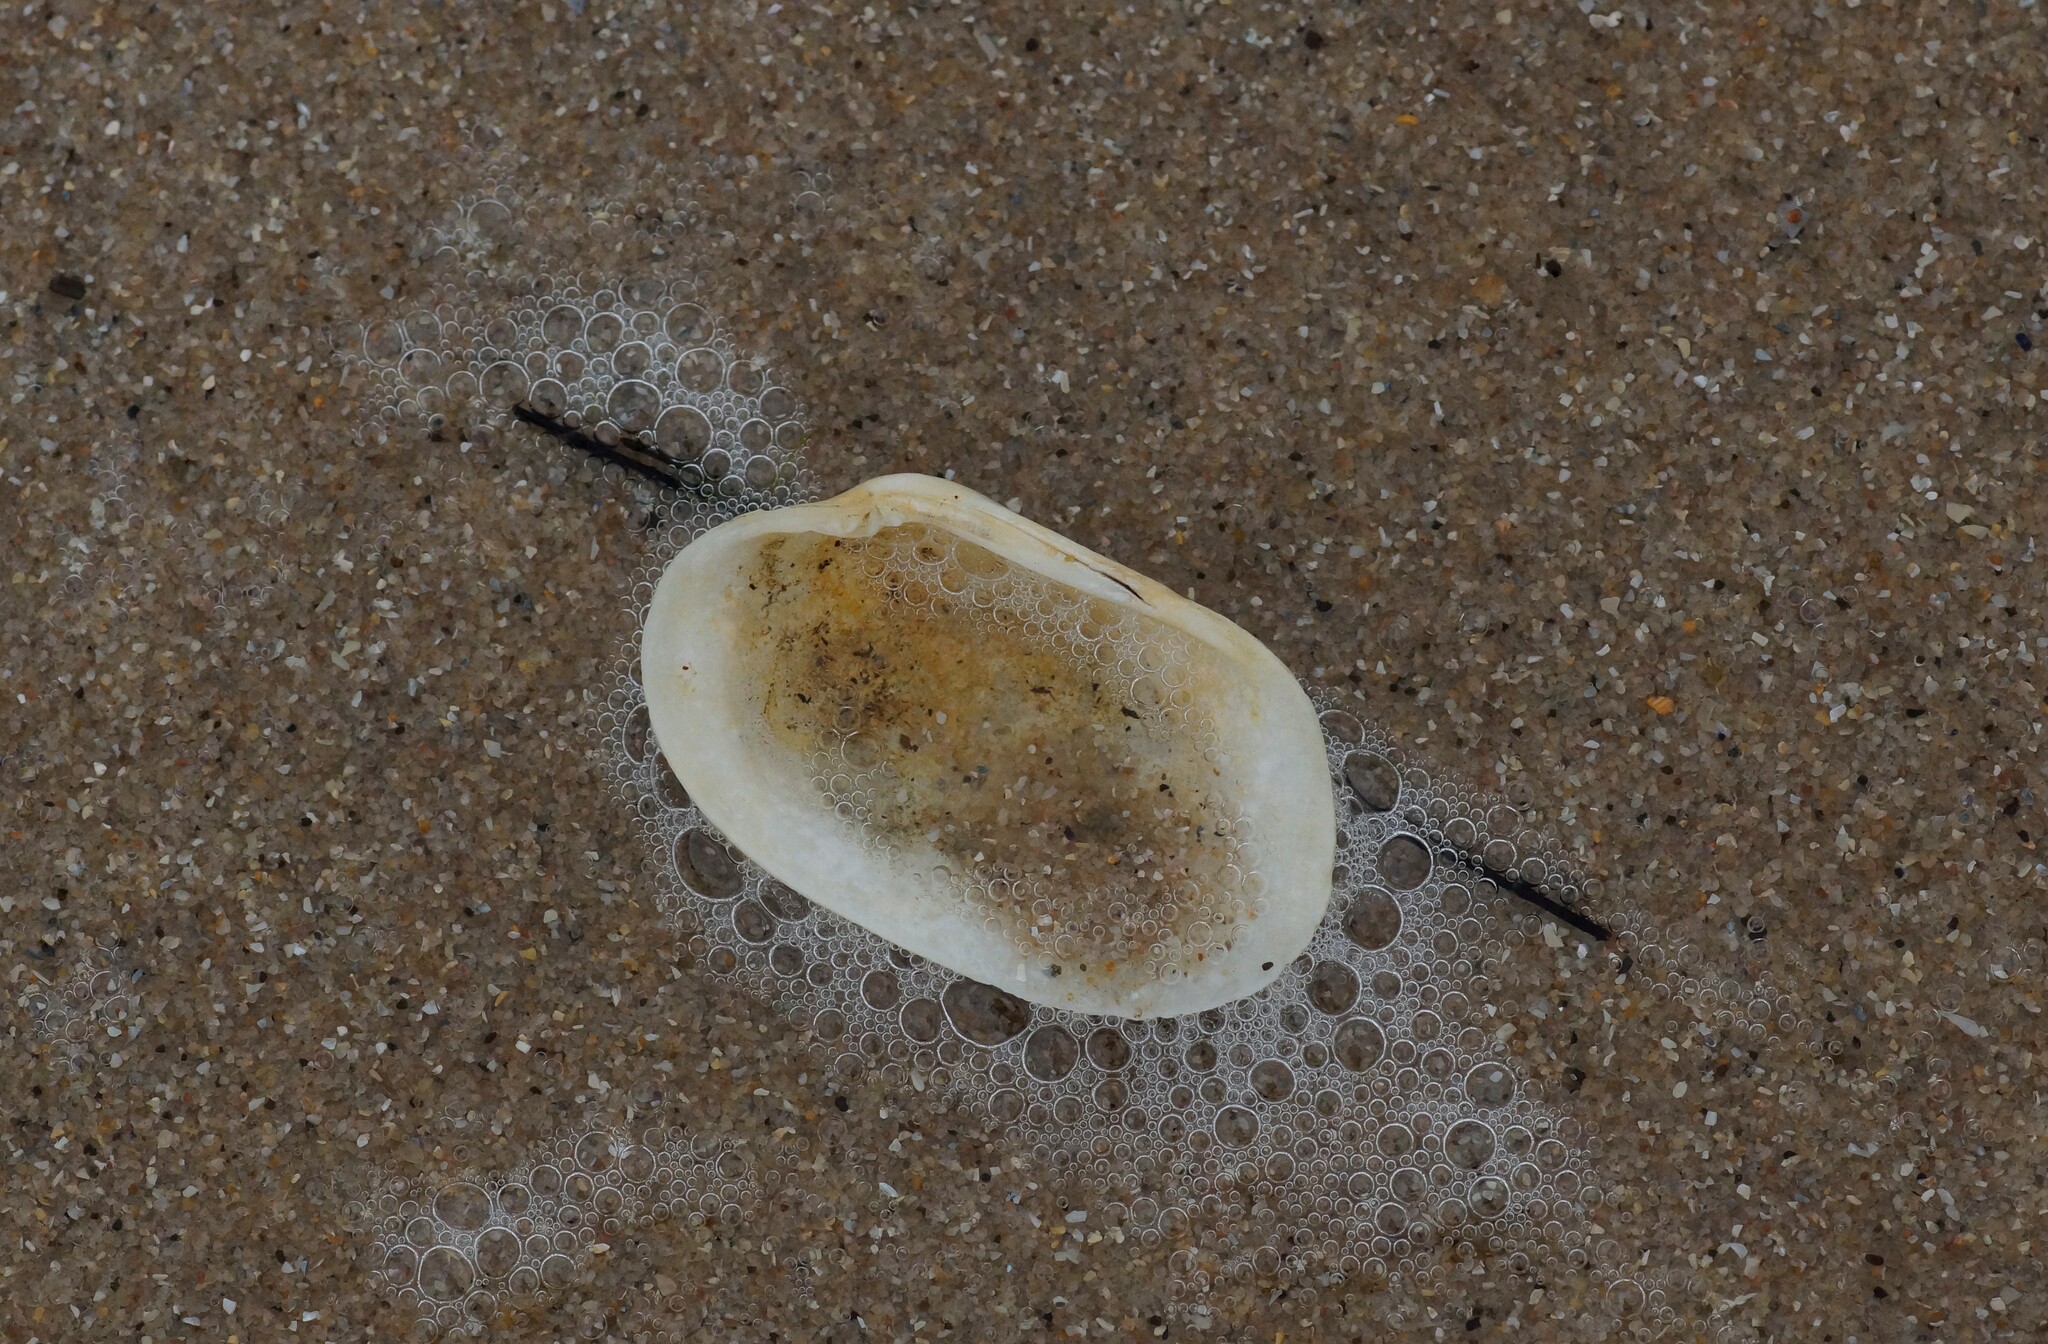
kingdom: Animalia
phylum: Mollusca
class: Bivalvia
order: Venerida
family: Veneridae
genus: Venerupis
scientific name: Venerupis galactites
